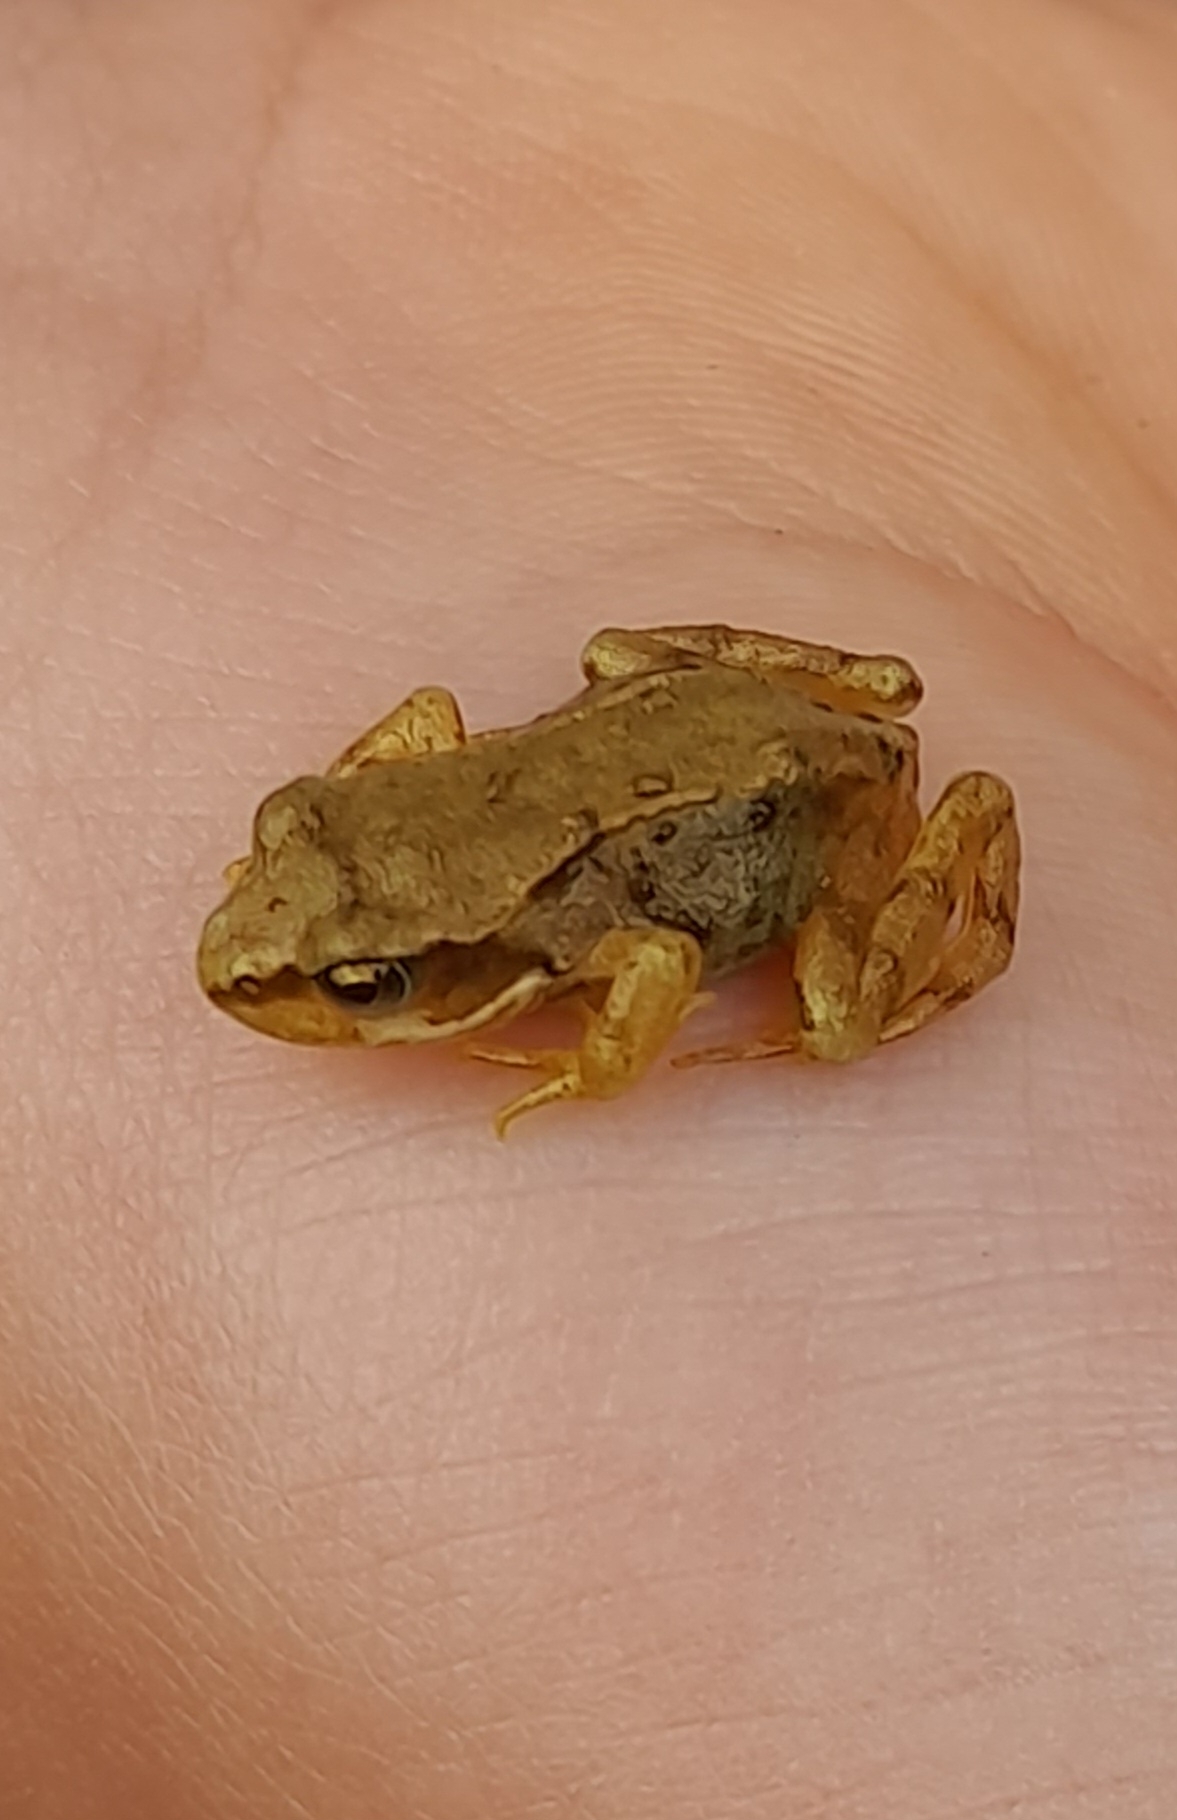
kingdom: Animalia
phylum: Chordata
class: Amphibia
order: Anura
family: Ranidae
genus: Rana
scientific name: Rana temporaria
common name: Common frog
